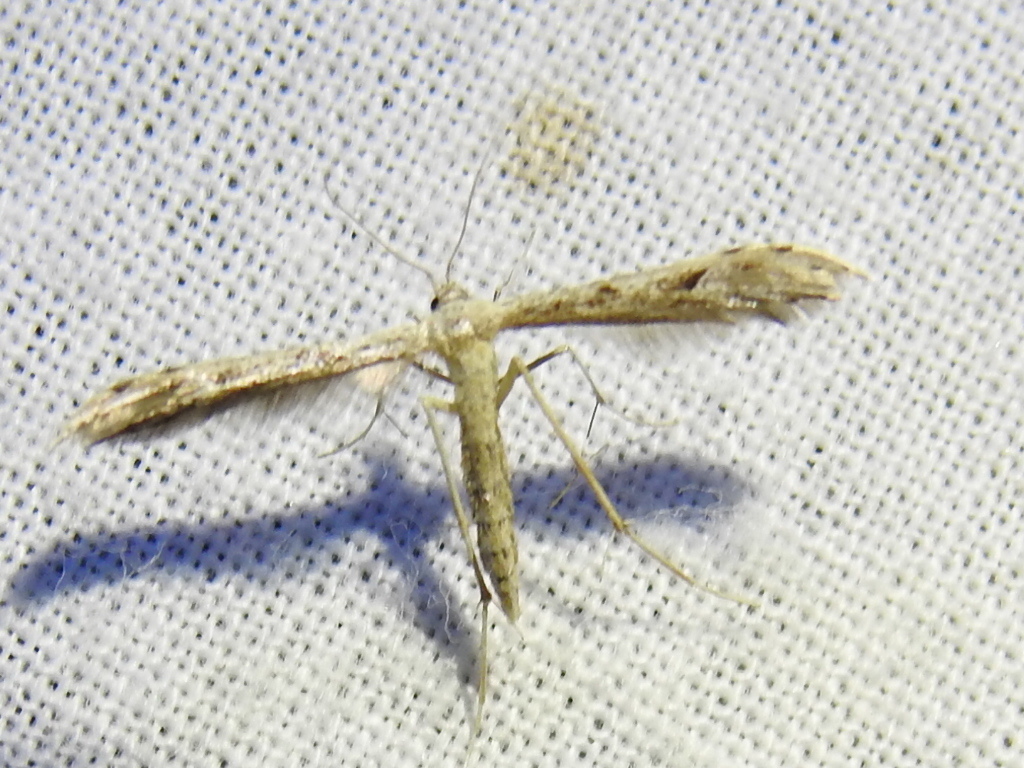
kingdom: Animalia
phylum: Arthropoda
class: Insecta
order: Lepidoptera
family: Pterophoridae
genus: Pselnophorus
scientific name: Pselnophorus belfragei
